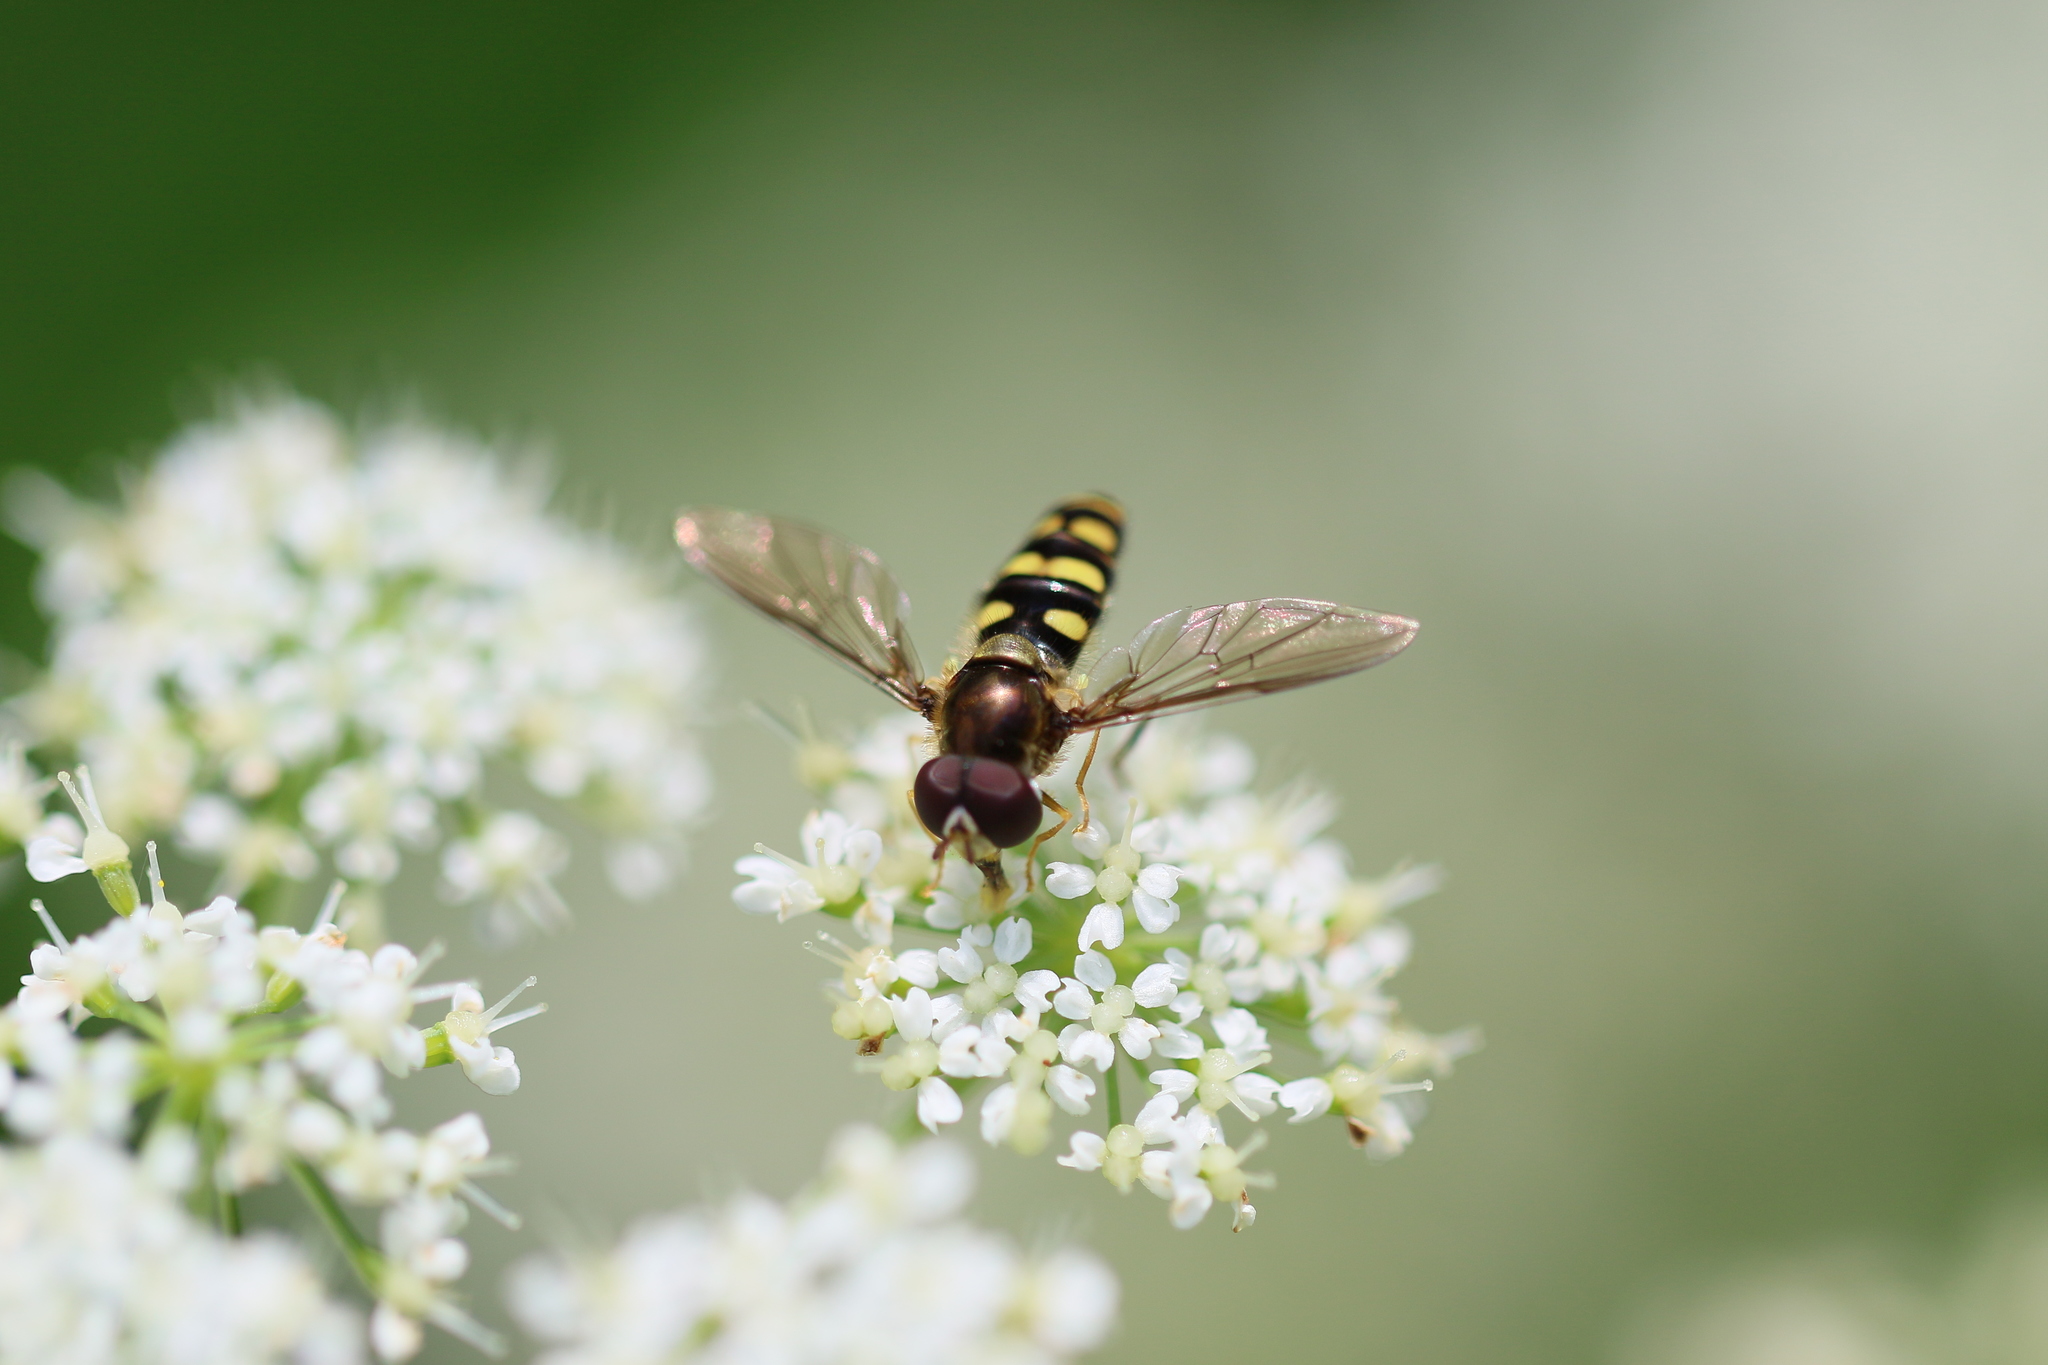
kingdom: Animalia
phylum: Arthropoda
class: Insecta
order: Diptera
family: Syrphidae
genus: Epistrophella
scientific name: Epistrophella emarginata
